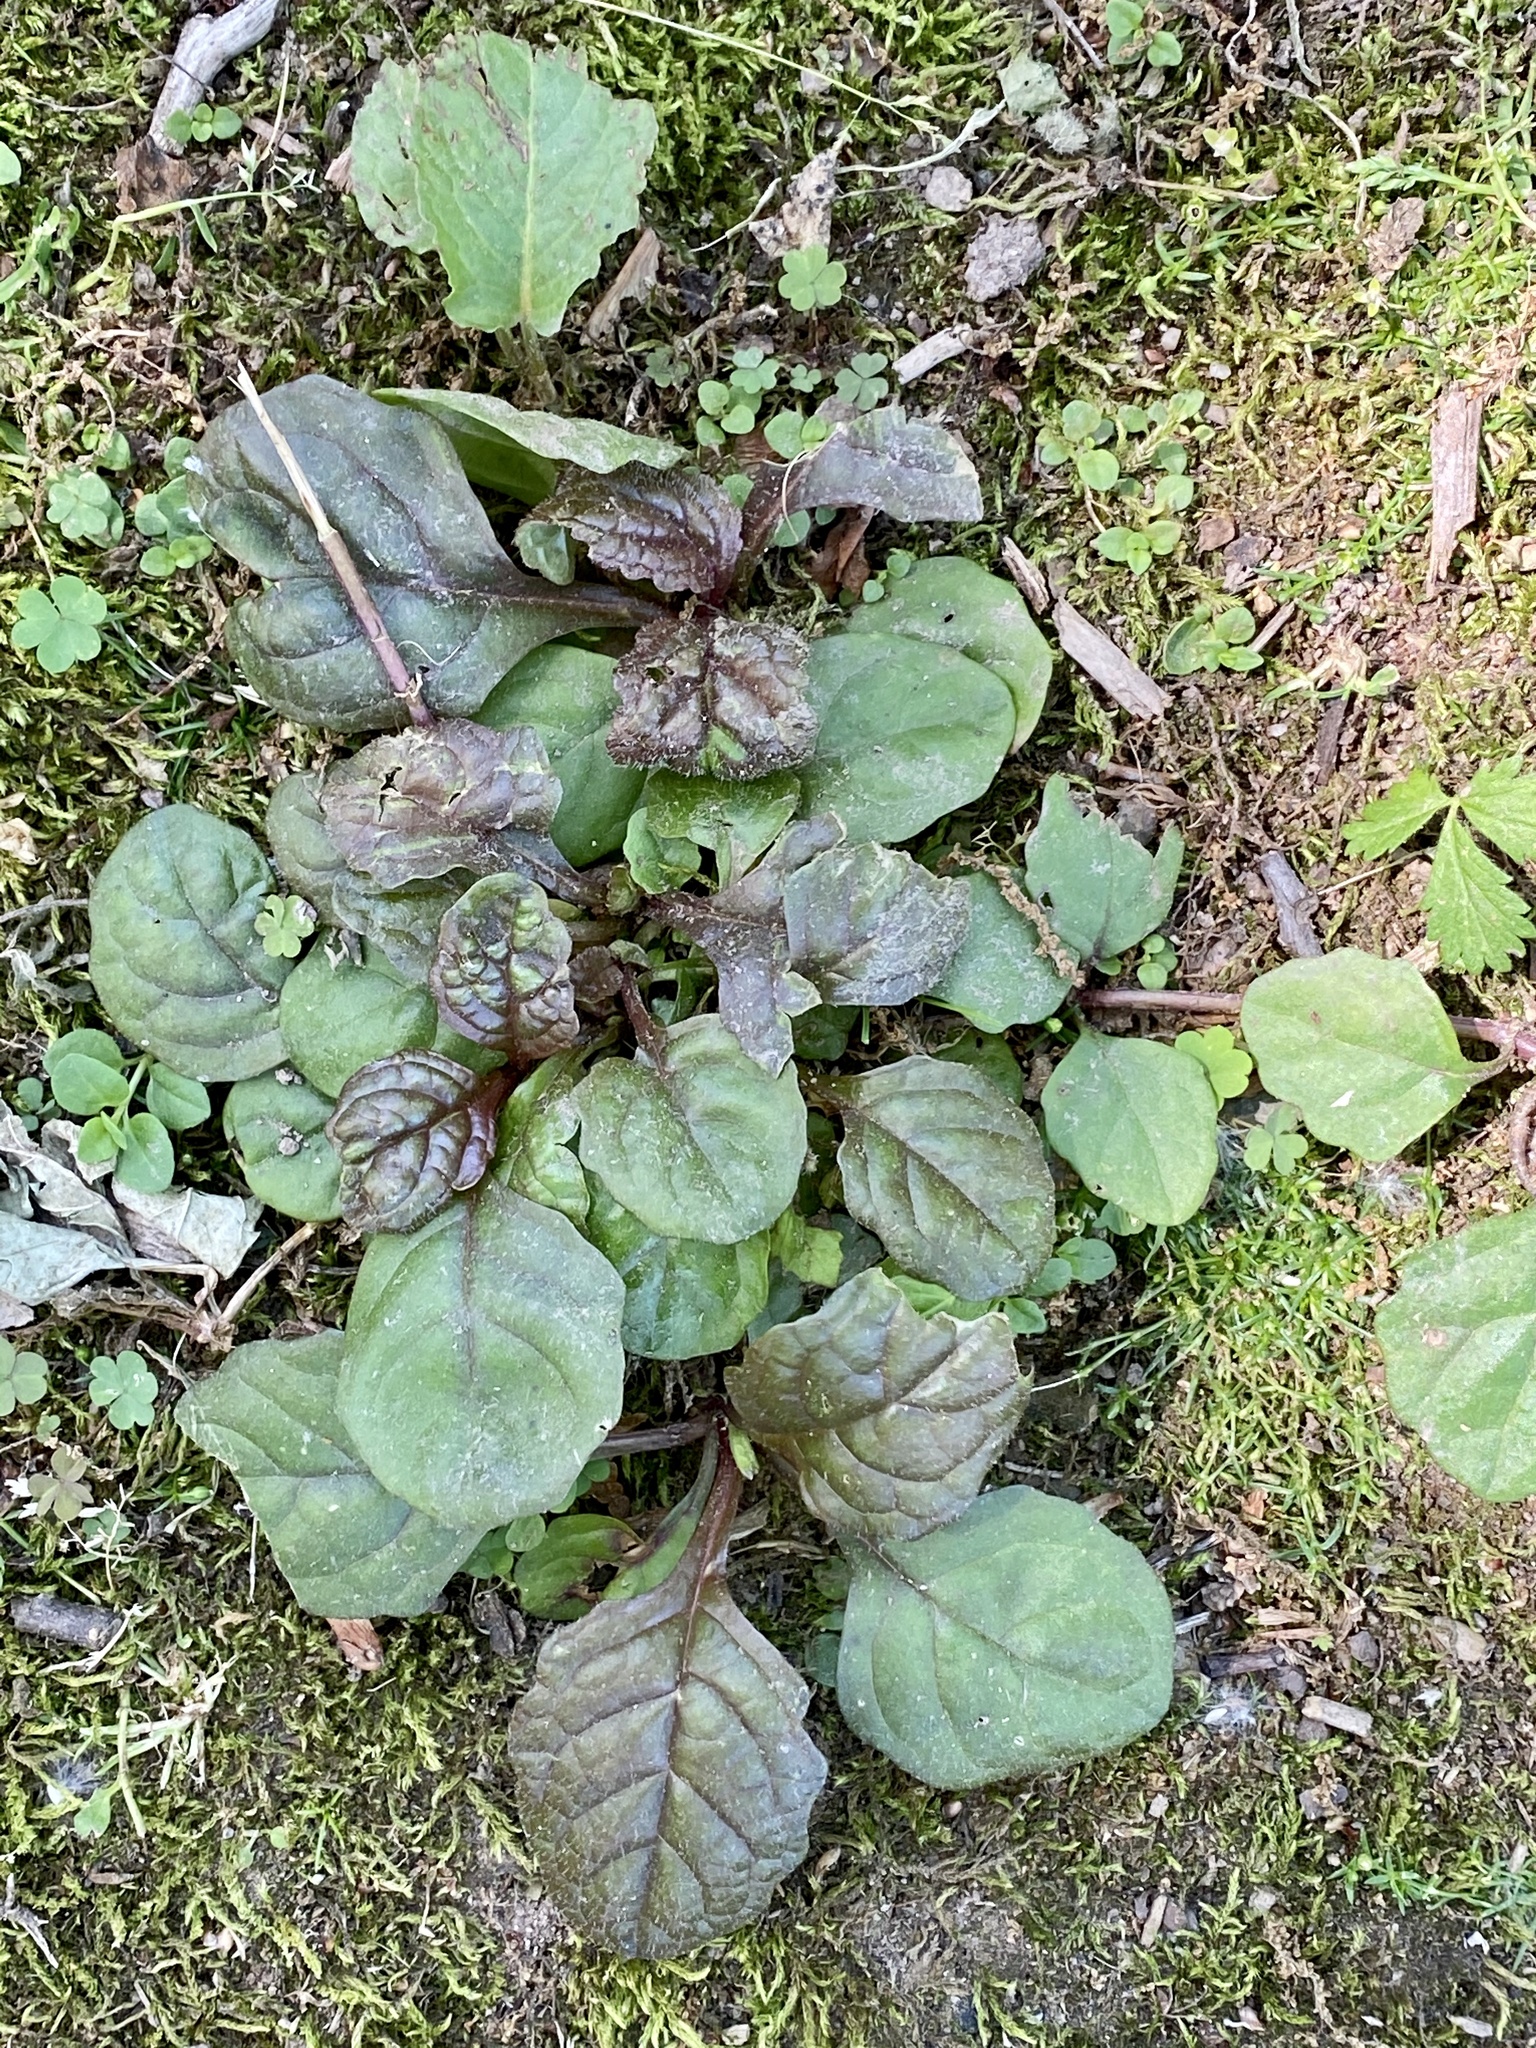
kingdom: Plantae
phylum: Tracheophyta
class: Magnoliopsida
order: Lamiales
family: Lamiaceae
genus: Ajuga
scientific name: Ajuga reptans
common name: Bugle
